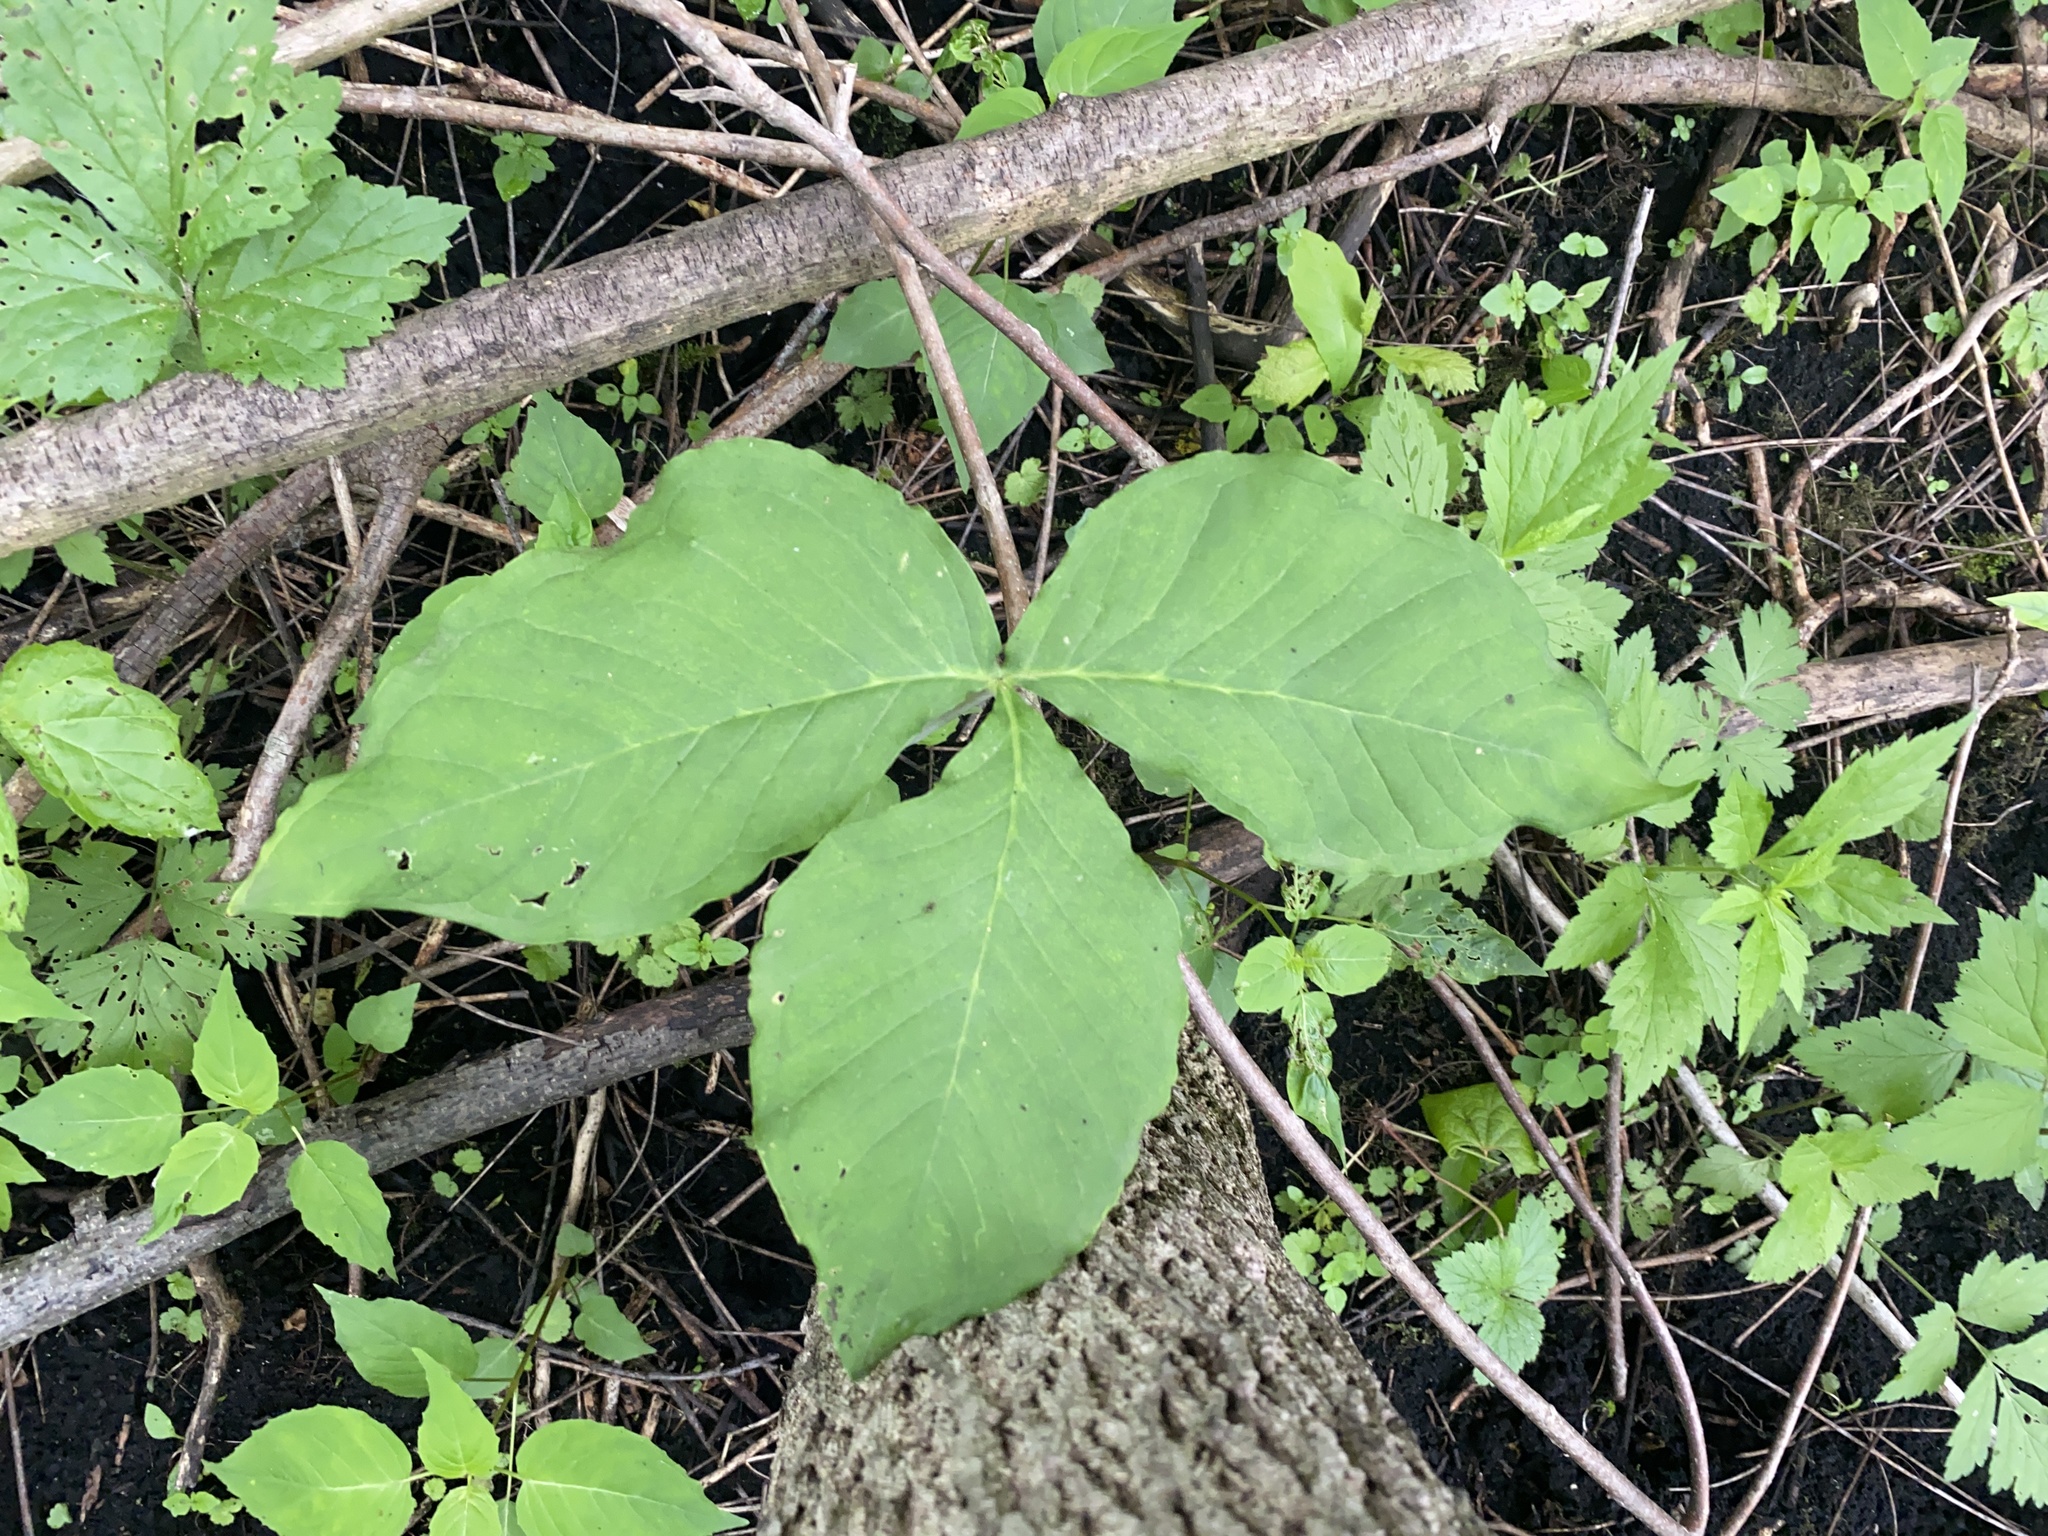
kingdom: Plantae
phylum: Tracheophyta
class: Liliopsida
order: Alismatales
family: Araceae
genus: Arisaema
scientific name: Arisaema triphyllum
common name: Jack-in-the-pulpit
